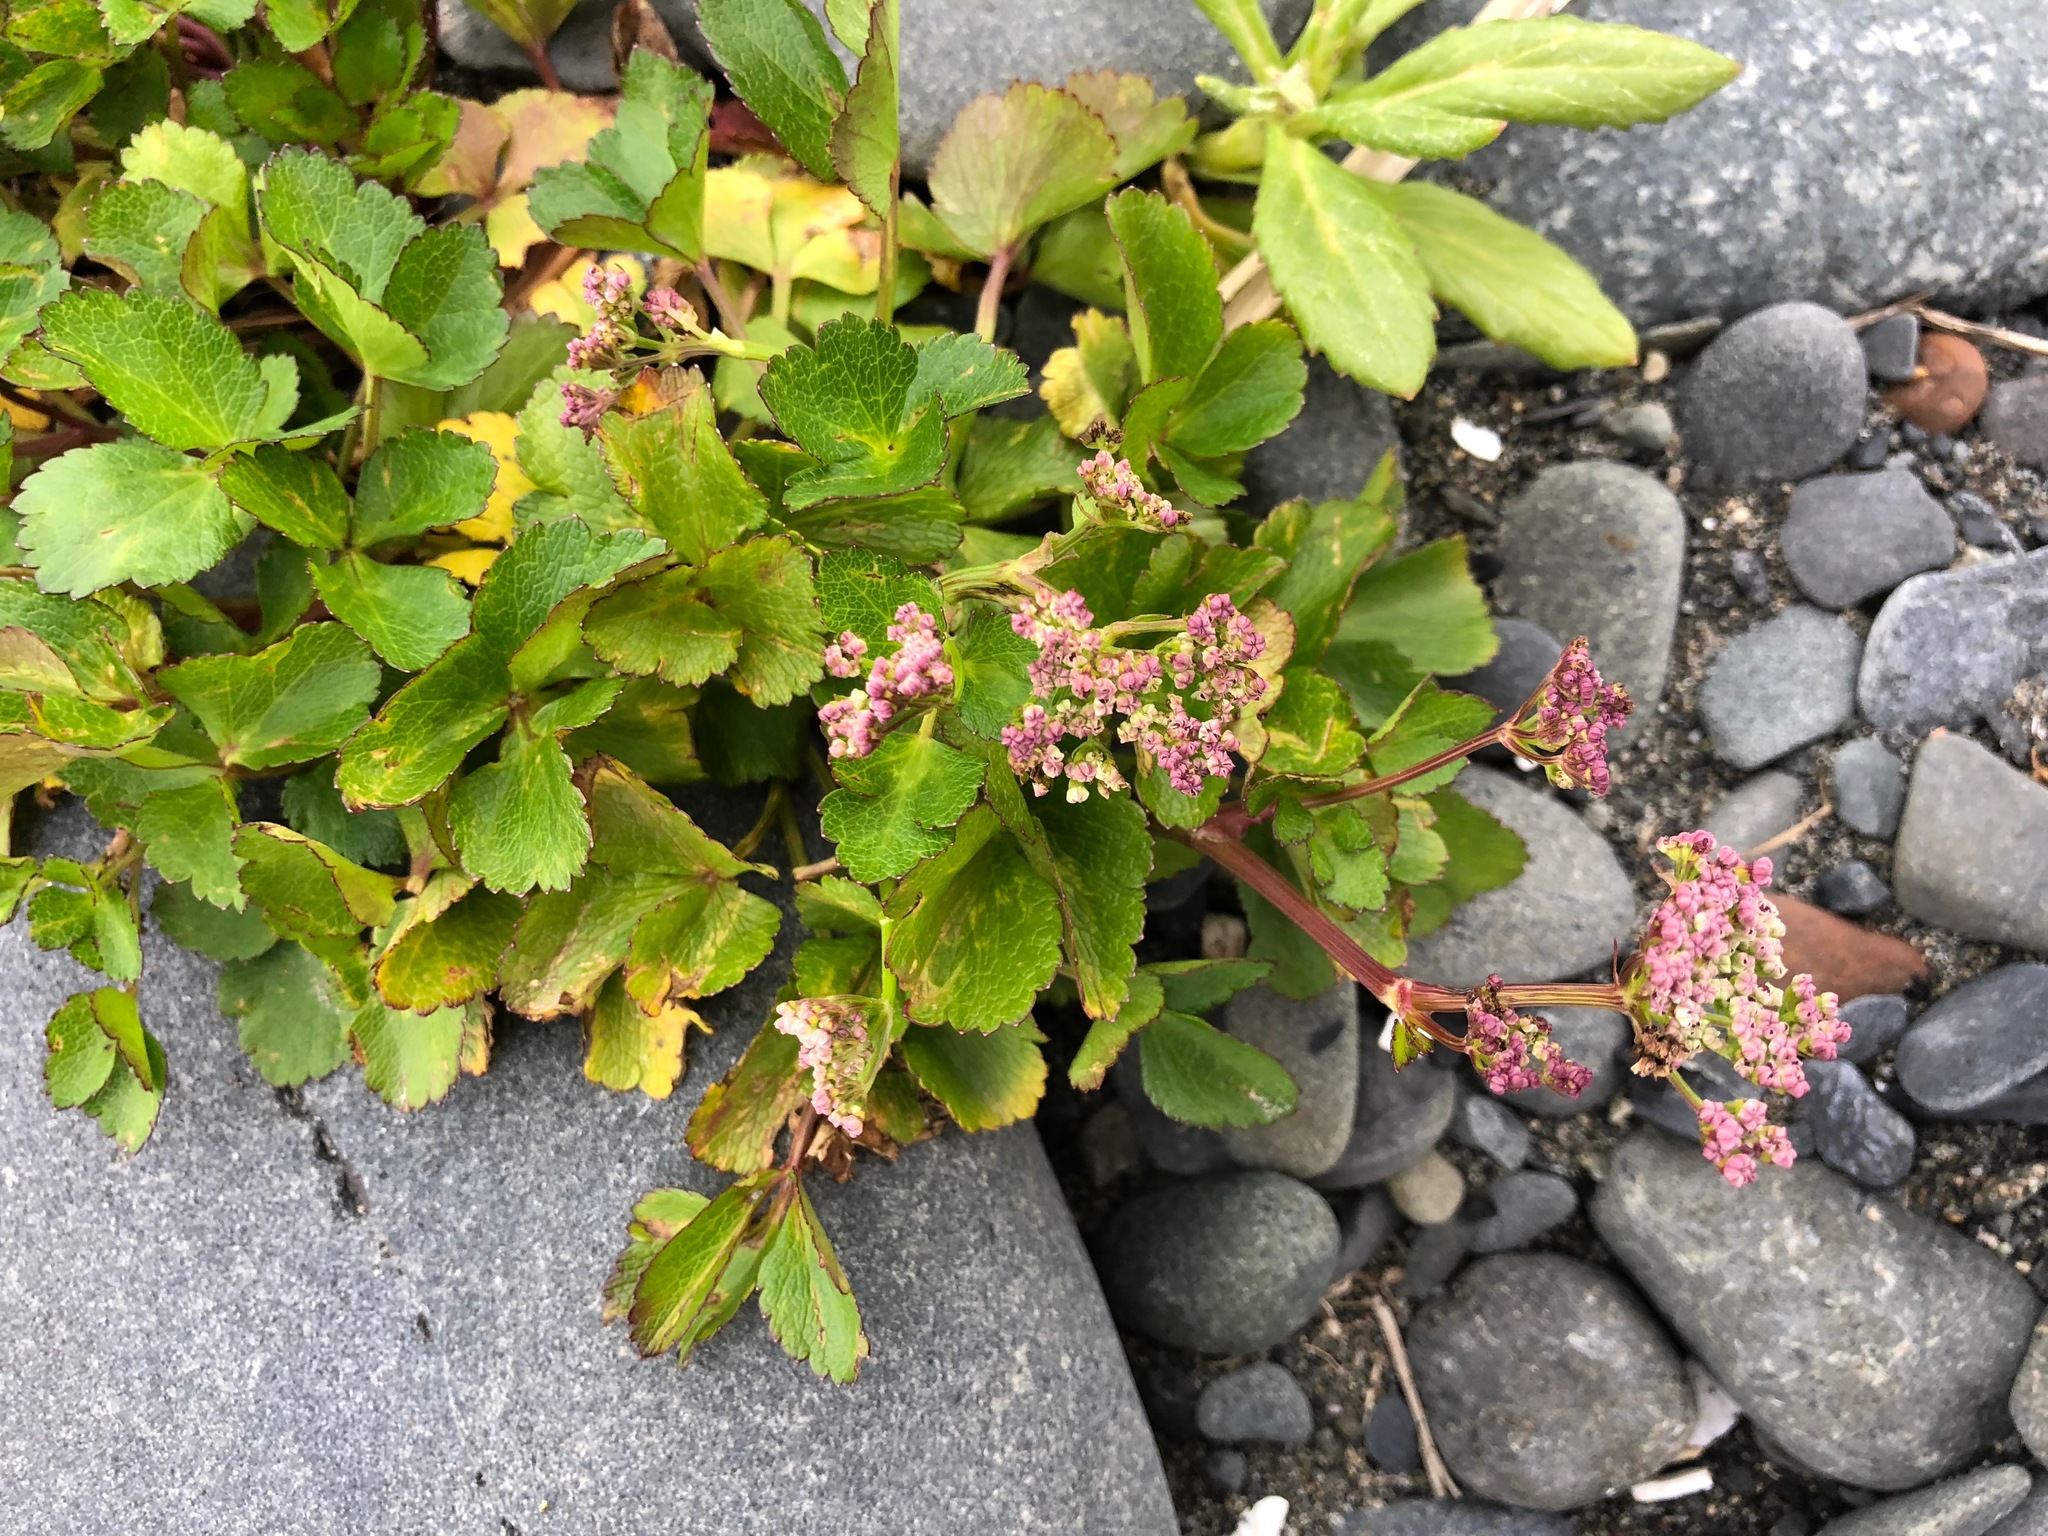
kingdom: Plantae
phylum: Tracheophyta
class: Magnoliopsida
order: Apiales
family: Apiaceae
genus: Ligusticum
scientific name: Ligusticum scothicum
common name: Beach lovage
